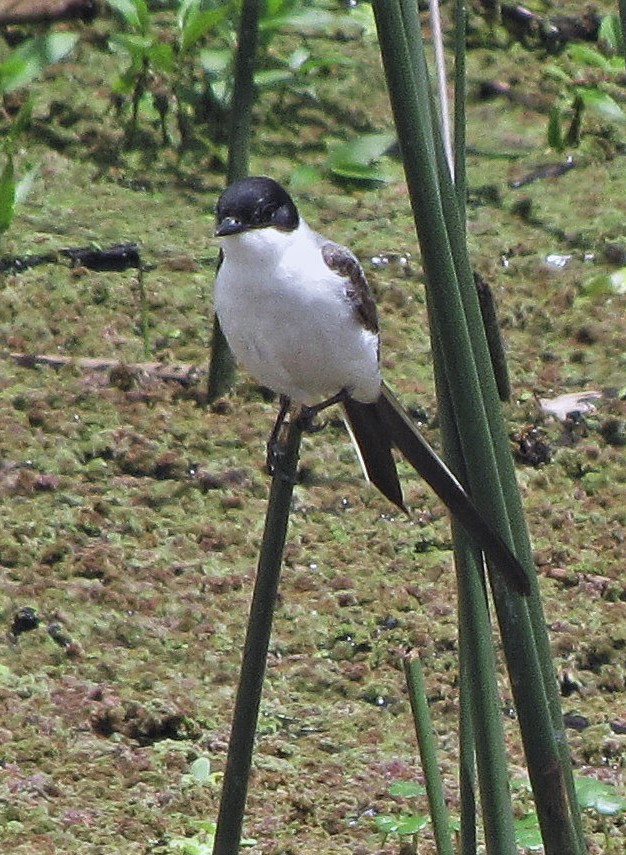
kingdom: Animalia
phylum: Chordata
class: Aves
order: Passeriformes
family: Tyrannidae
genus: Tyrannus
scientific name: Tyrannus savana
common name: Fork-tailed flycatcher
